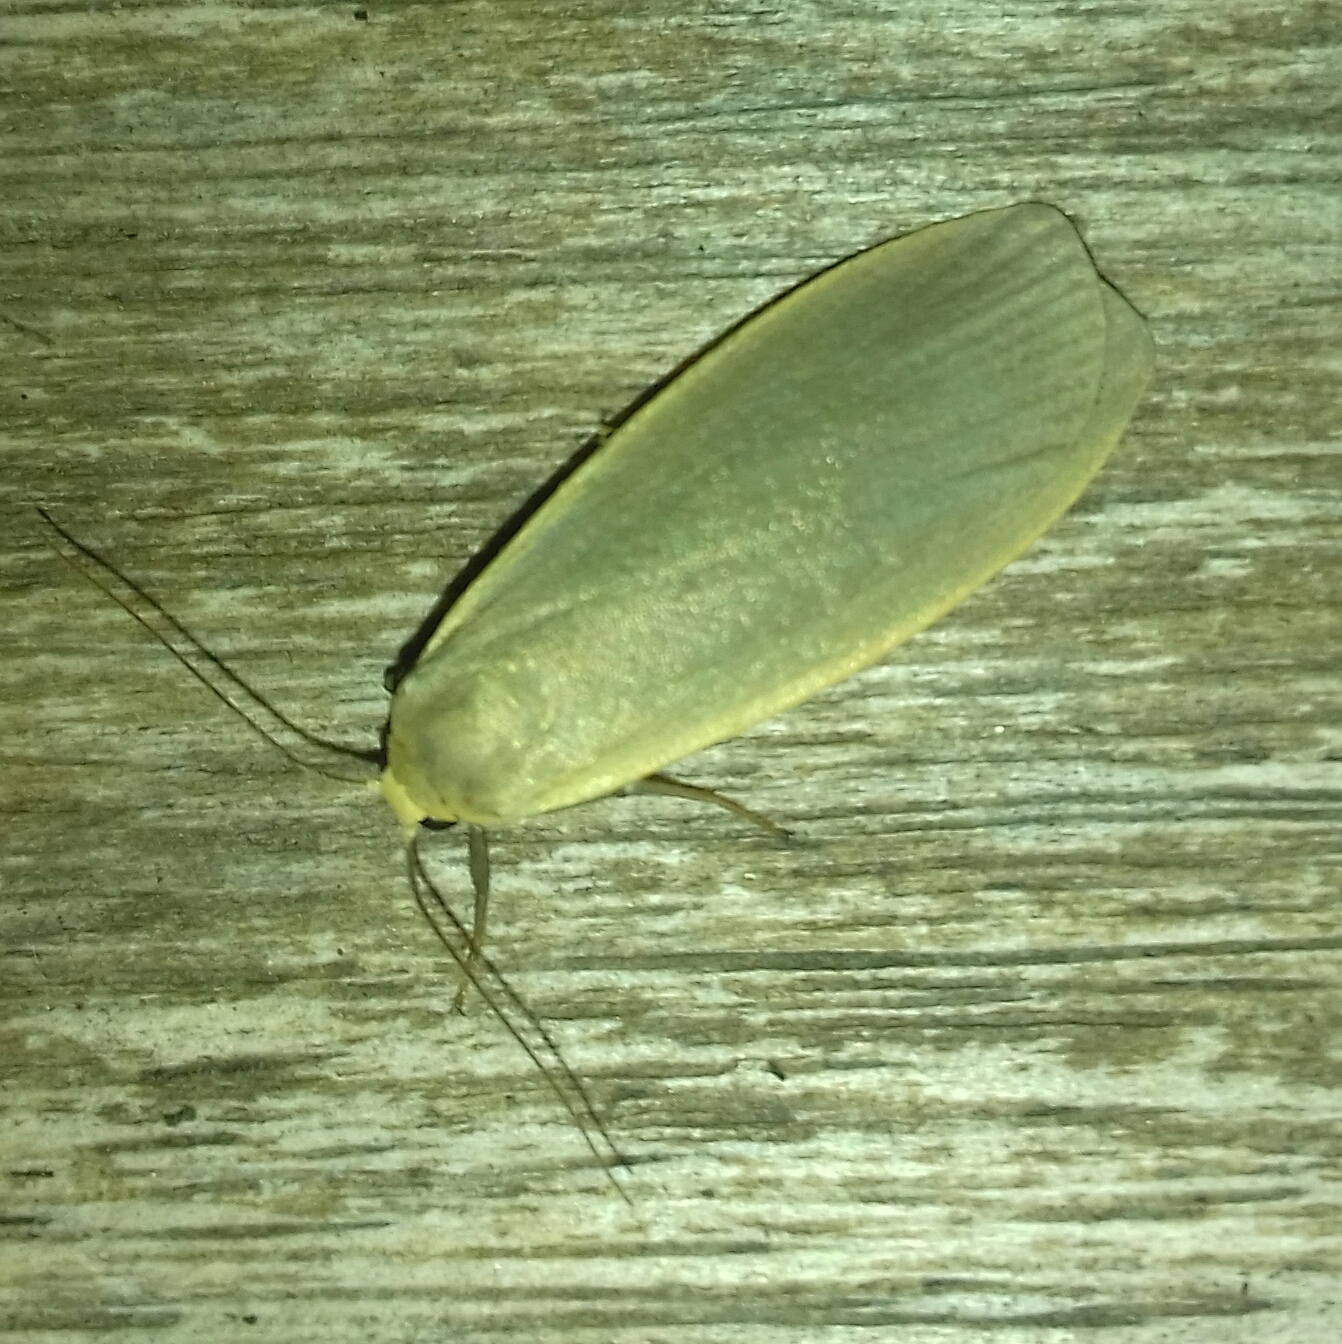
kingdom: Animalia
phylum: Arthropoda
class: Insecta
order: Lepidoptera
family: Erebidae
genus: Collita
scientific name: Collita griseola
